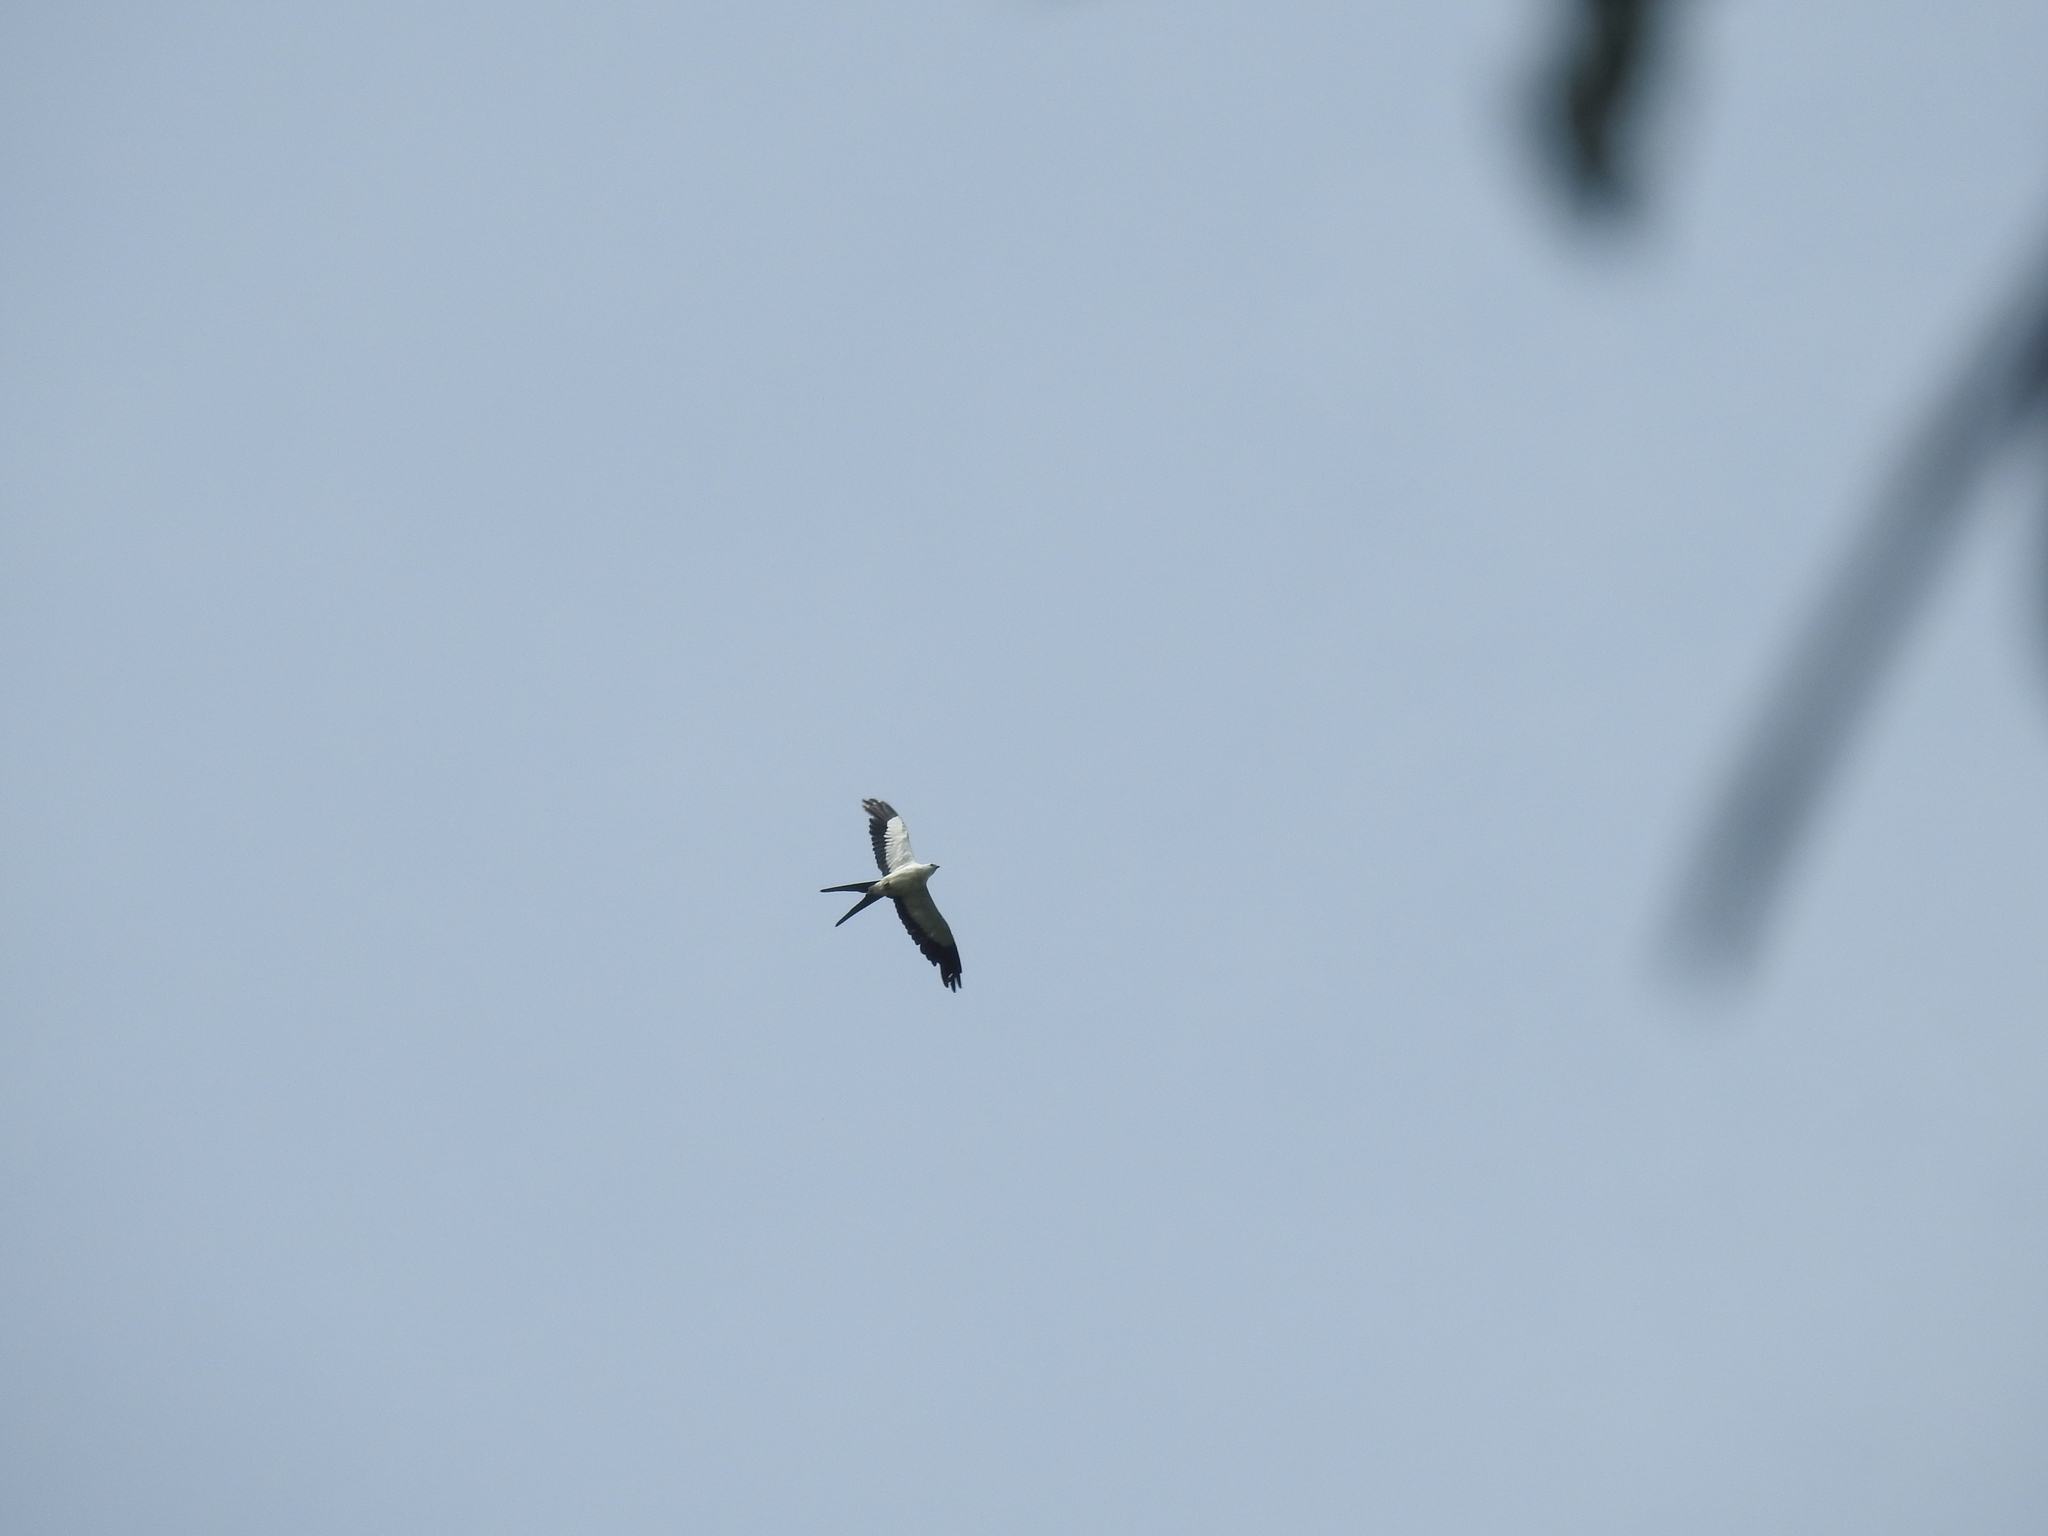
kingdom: Animalia
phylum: Chordata
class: Aves
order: Accipitriformes
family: Accipitridae
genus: Elanoides
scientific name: Elanoides forficatus
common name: Swallow-tailed kite
